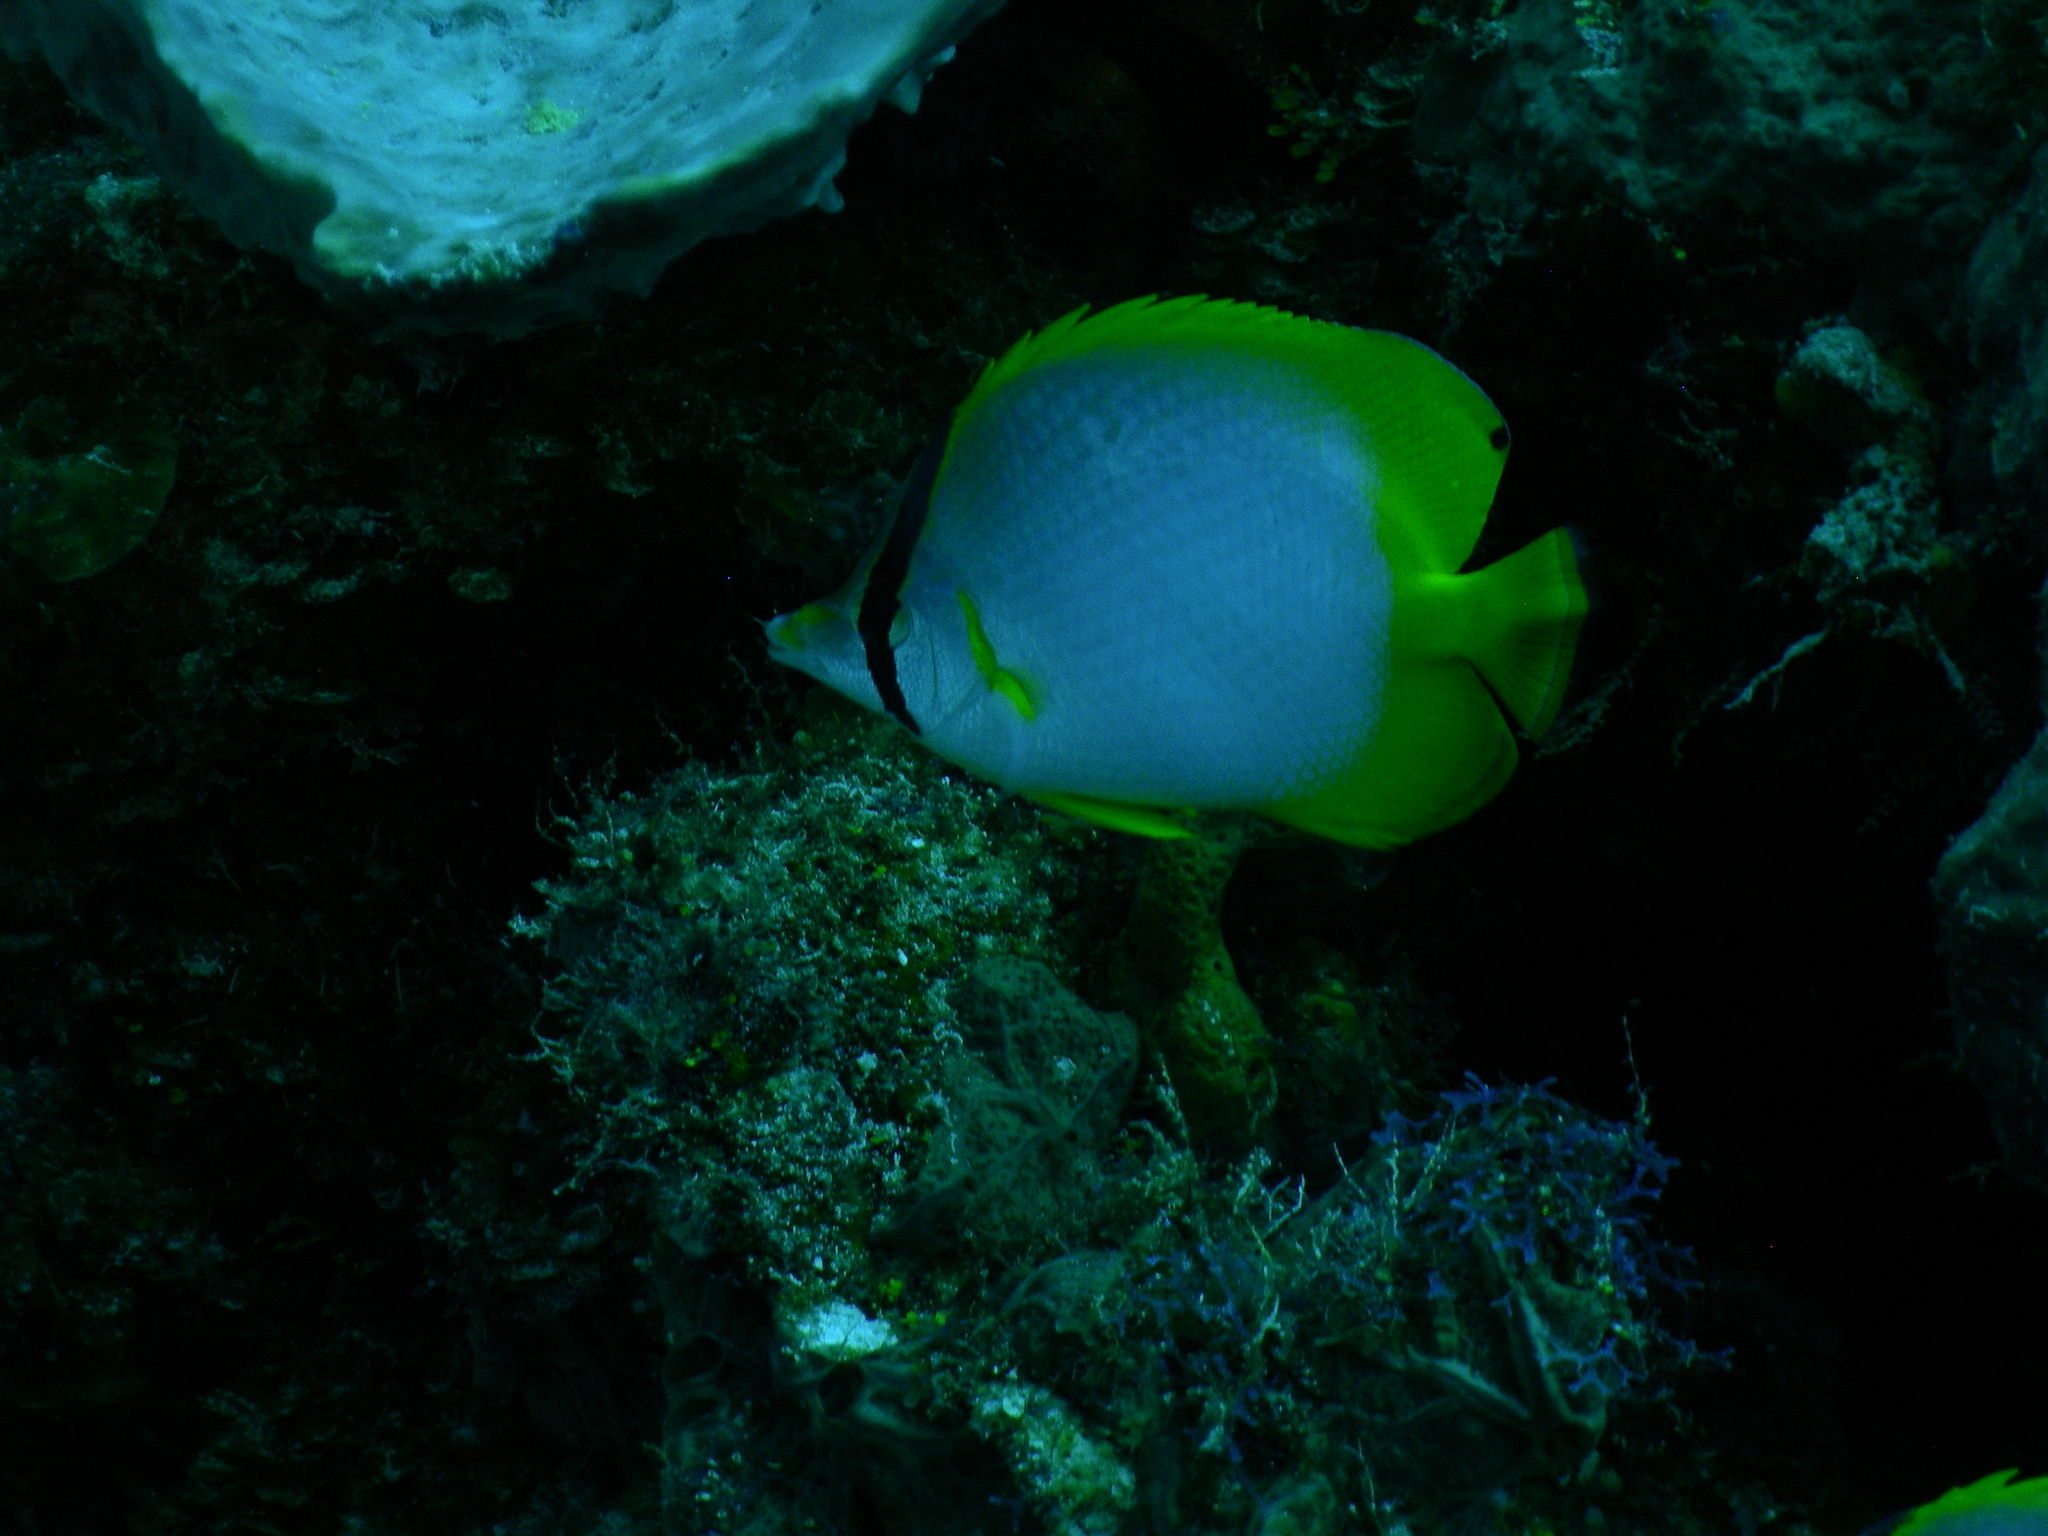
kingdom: Animalia
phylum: Chordata
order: Perciformes
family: Chaetodontidae
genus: Chaetodon
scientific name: Chaetodon ocellatus
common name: Spotfin butterflyfish
